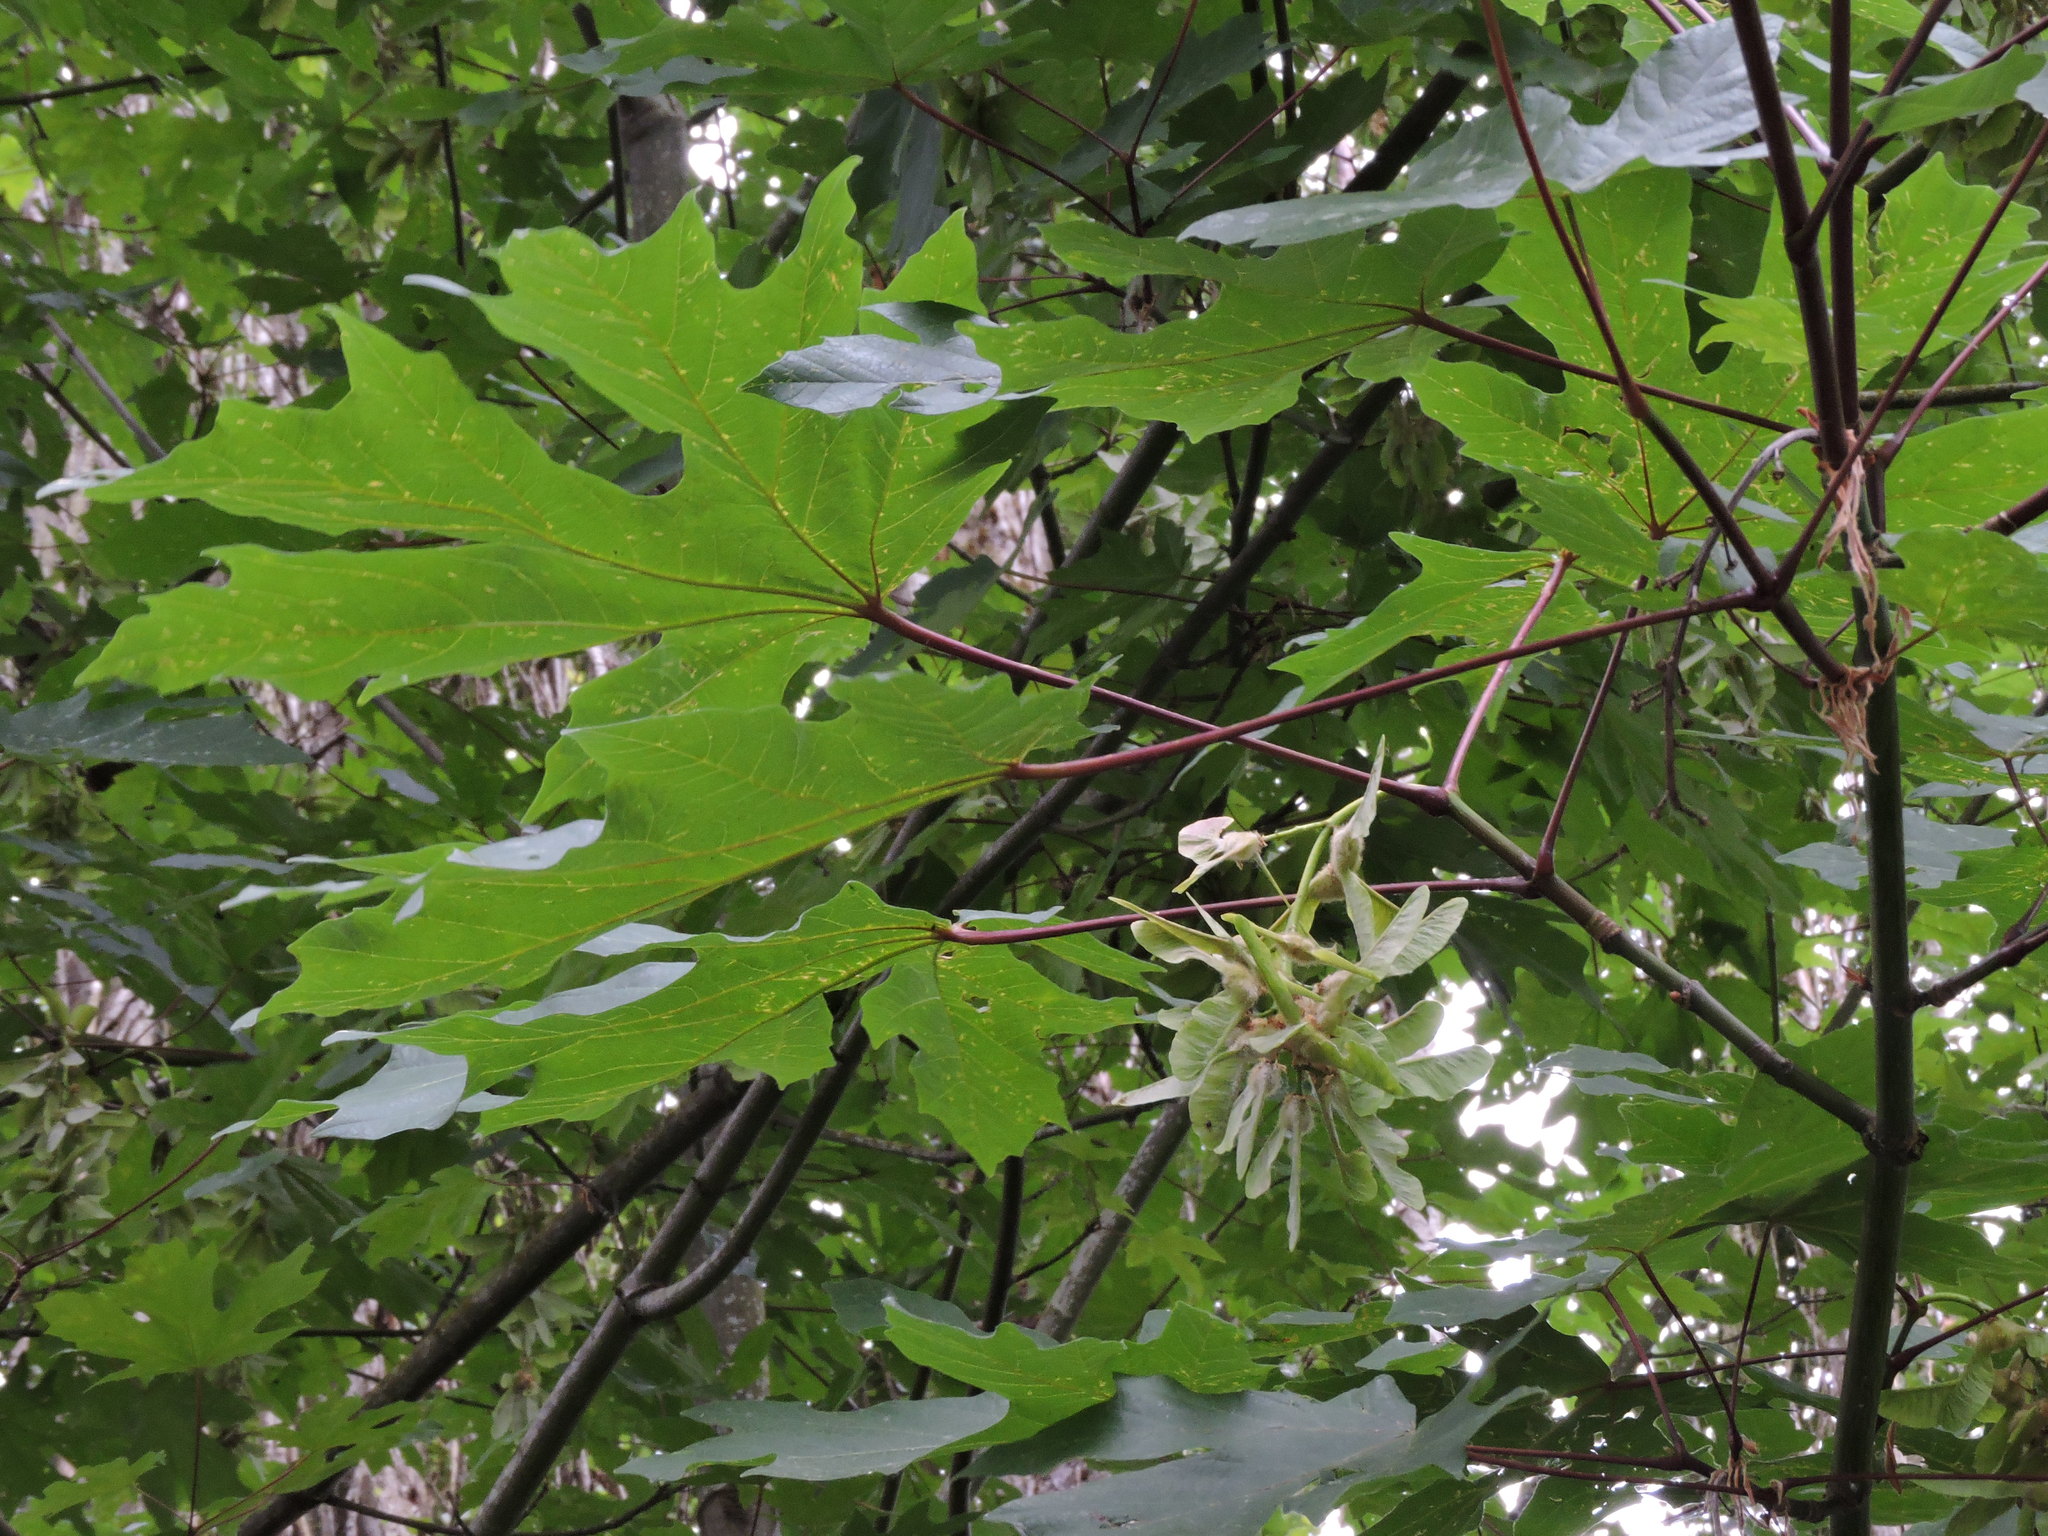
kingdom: Plantae
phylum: Tracheophyta
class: Magnoliopsida
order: Sapindales
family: Sapindaceae
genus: Acer
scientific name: Acer macrophyllum
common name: Oregon maple
